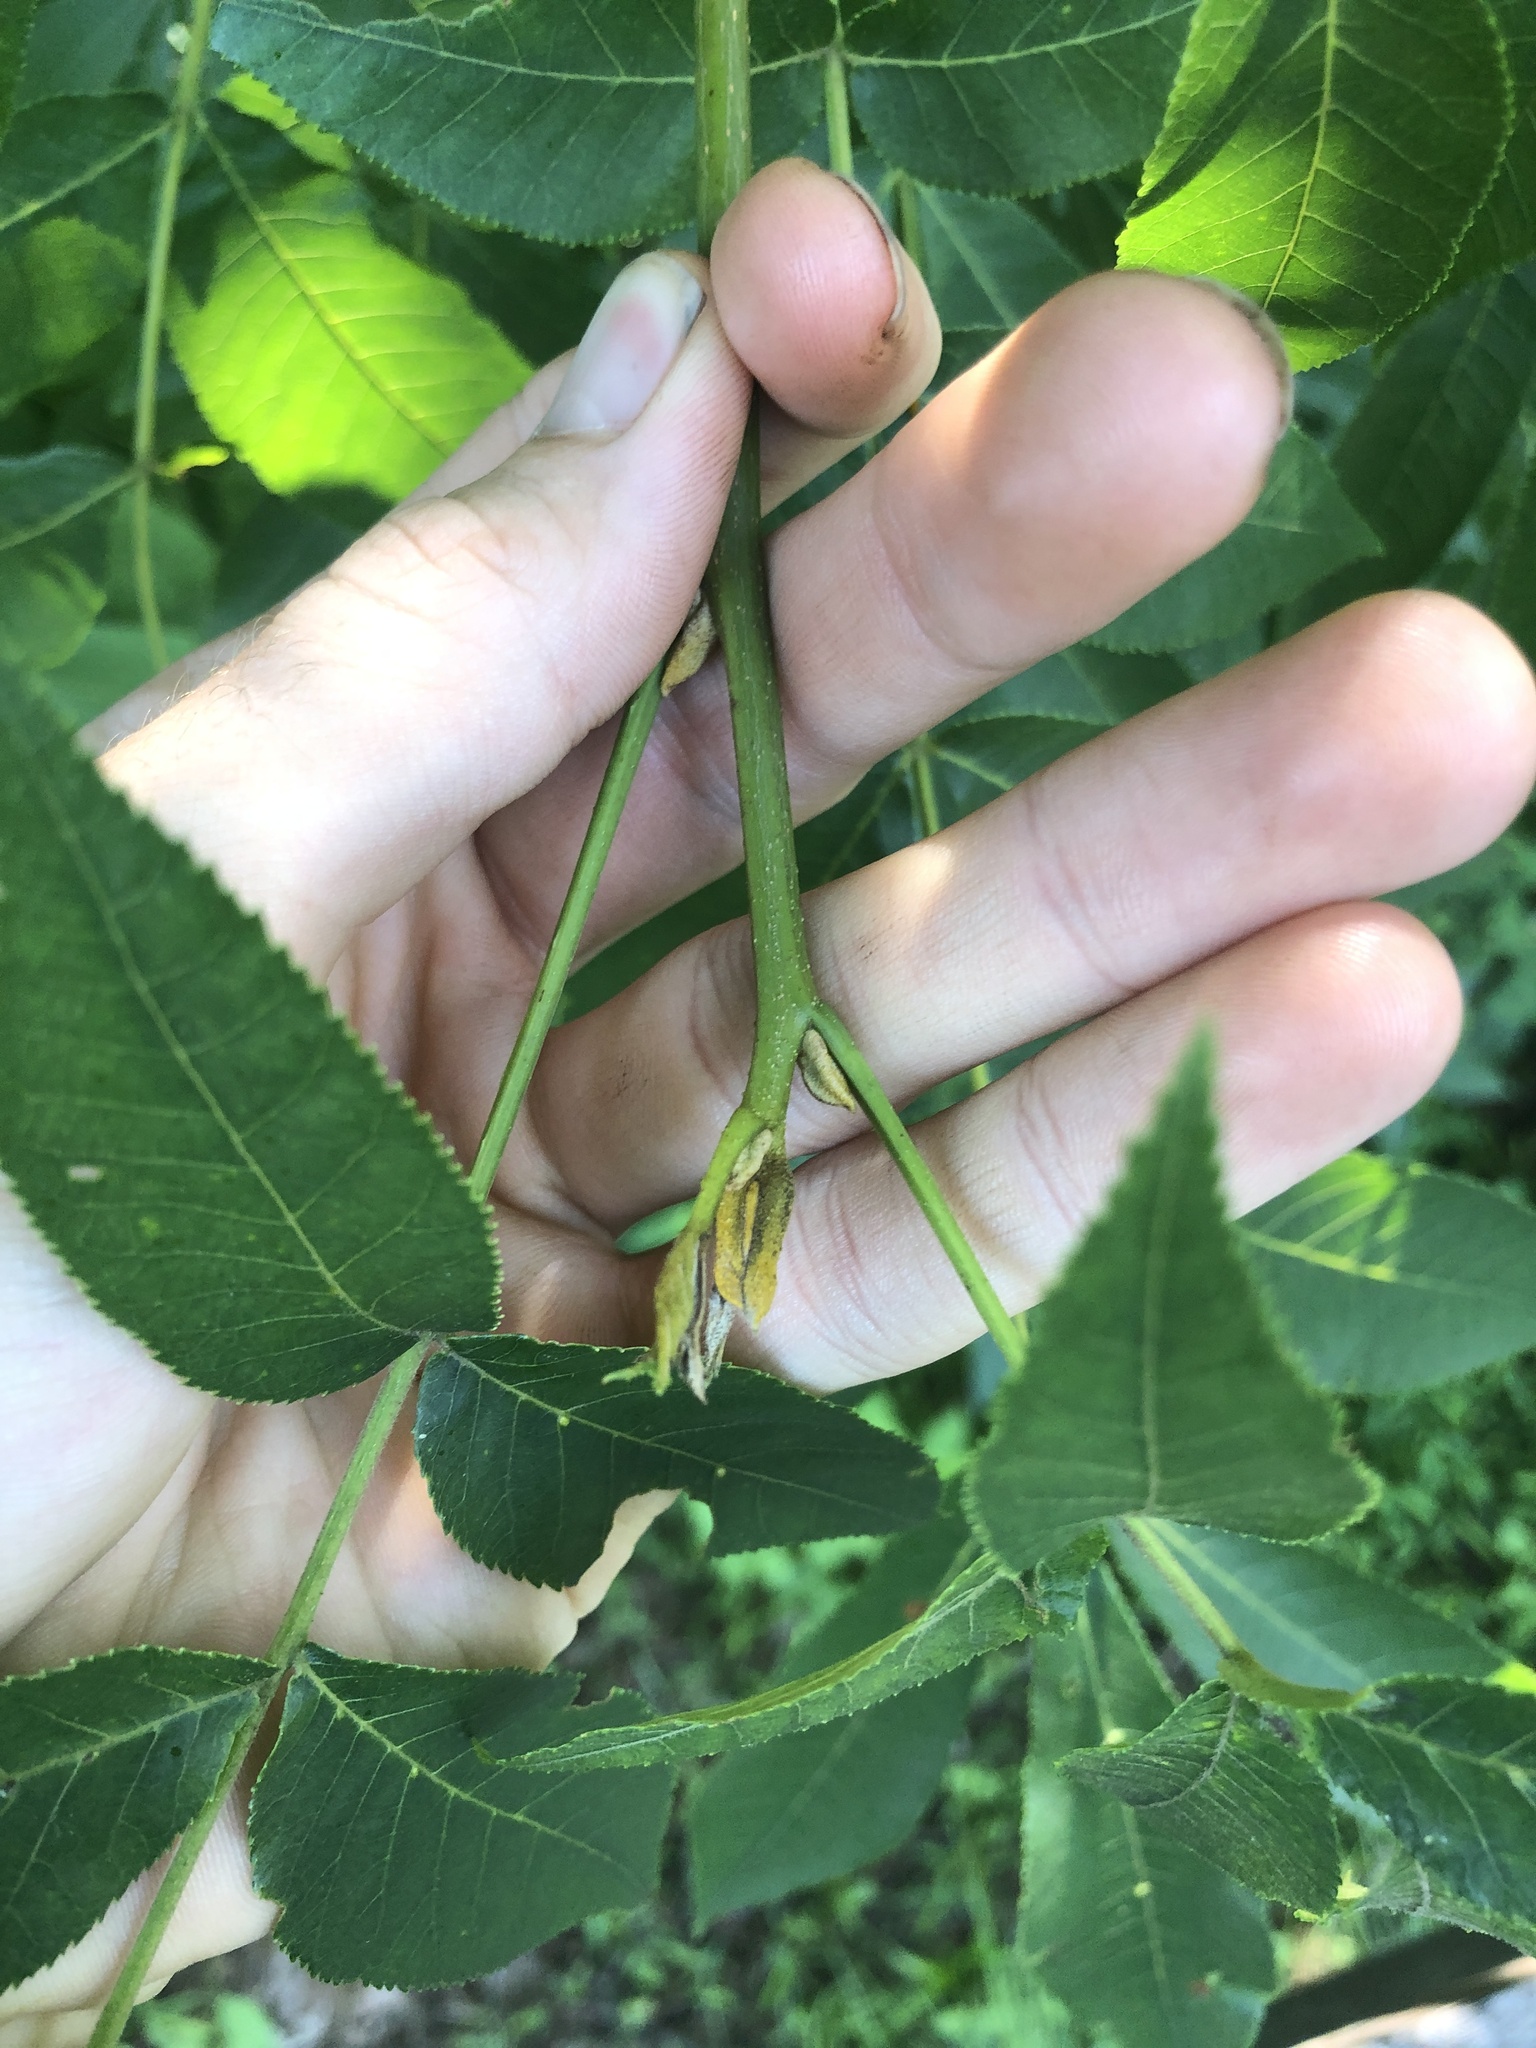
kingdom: Plantae
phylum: Tracheophyta
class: Magnoliopsida
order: Fagales
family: Juglandaceae
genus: Carya
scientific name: Carya cordiformis
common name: Bitternut hickory
